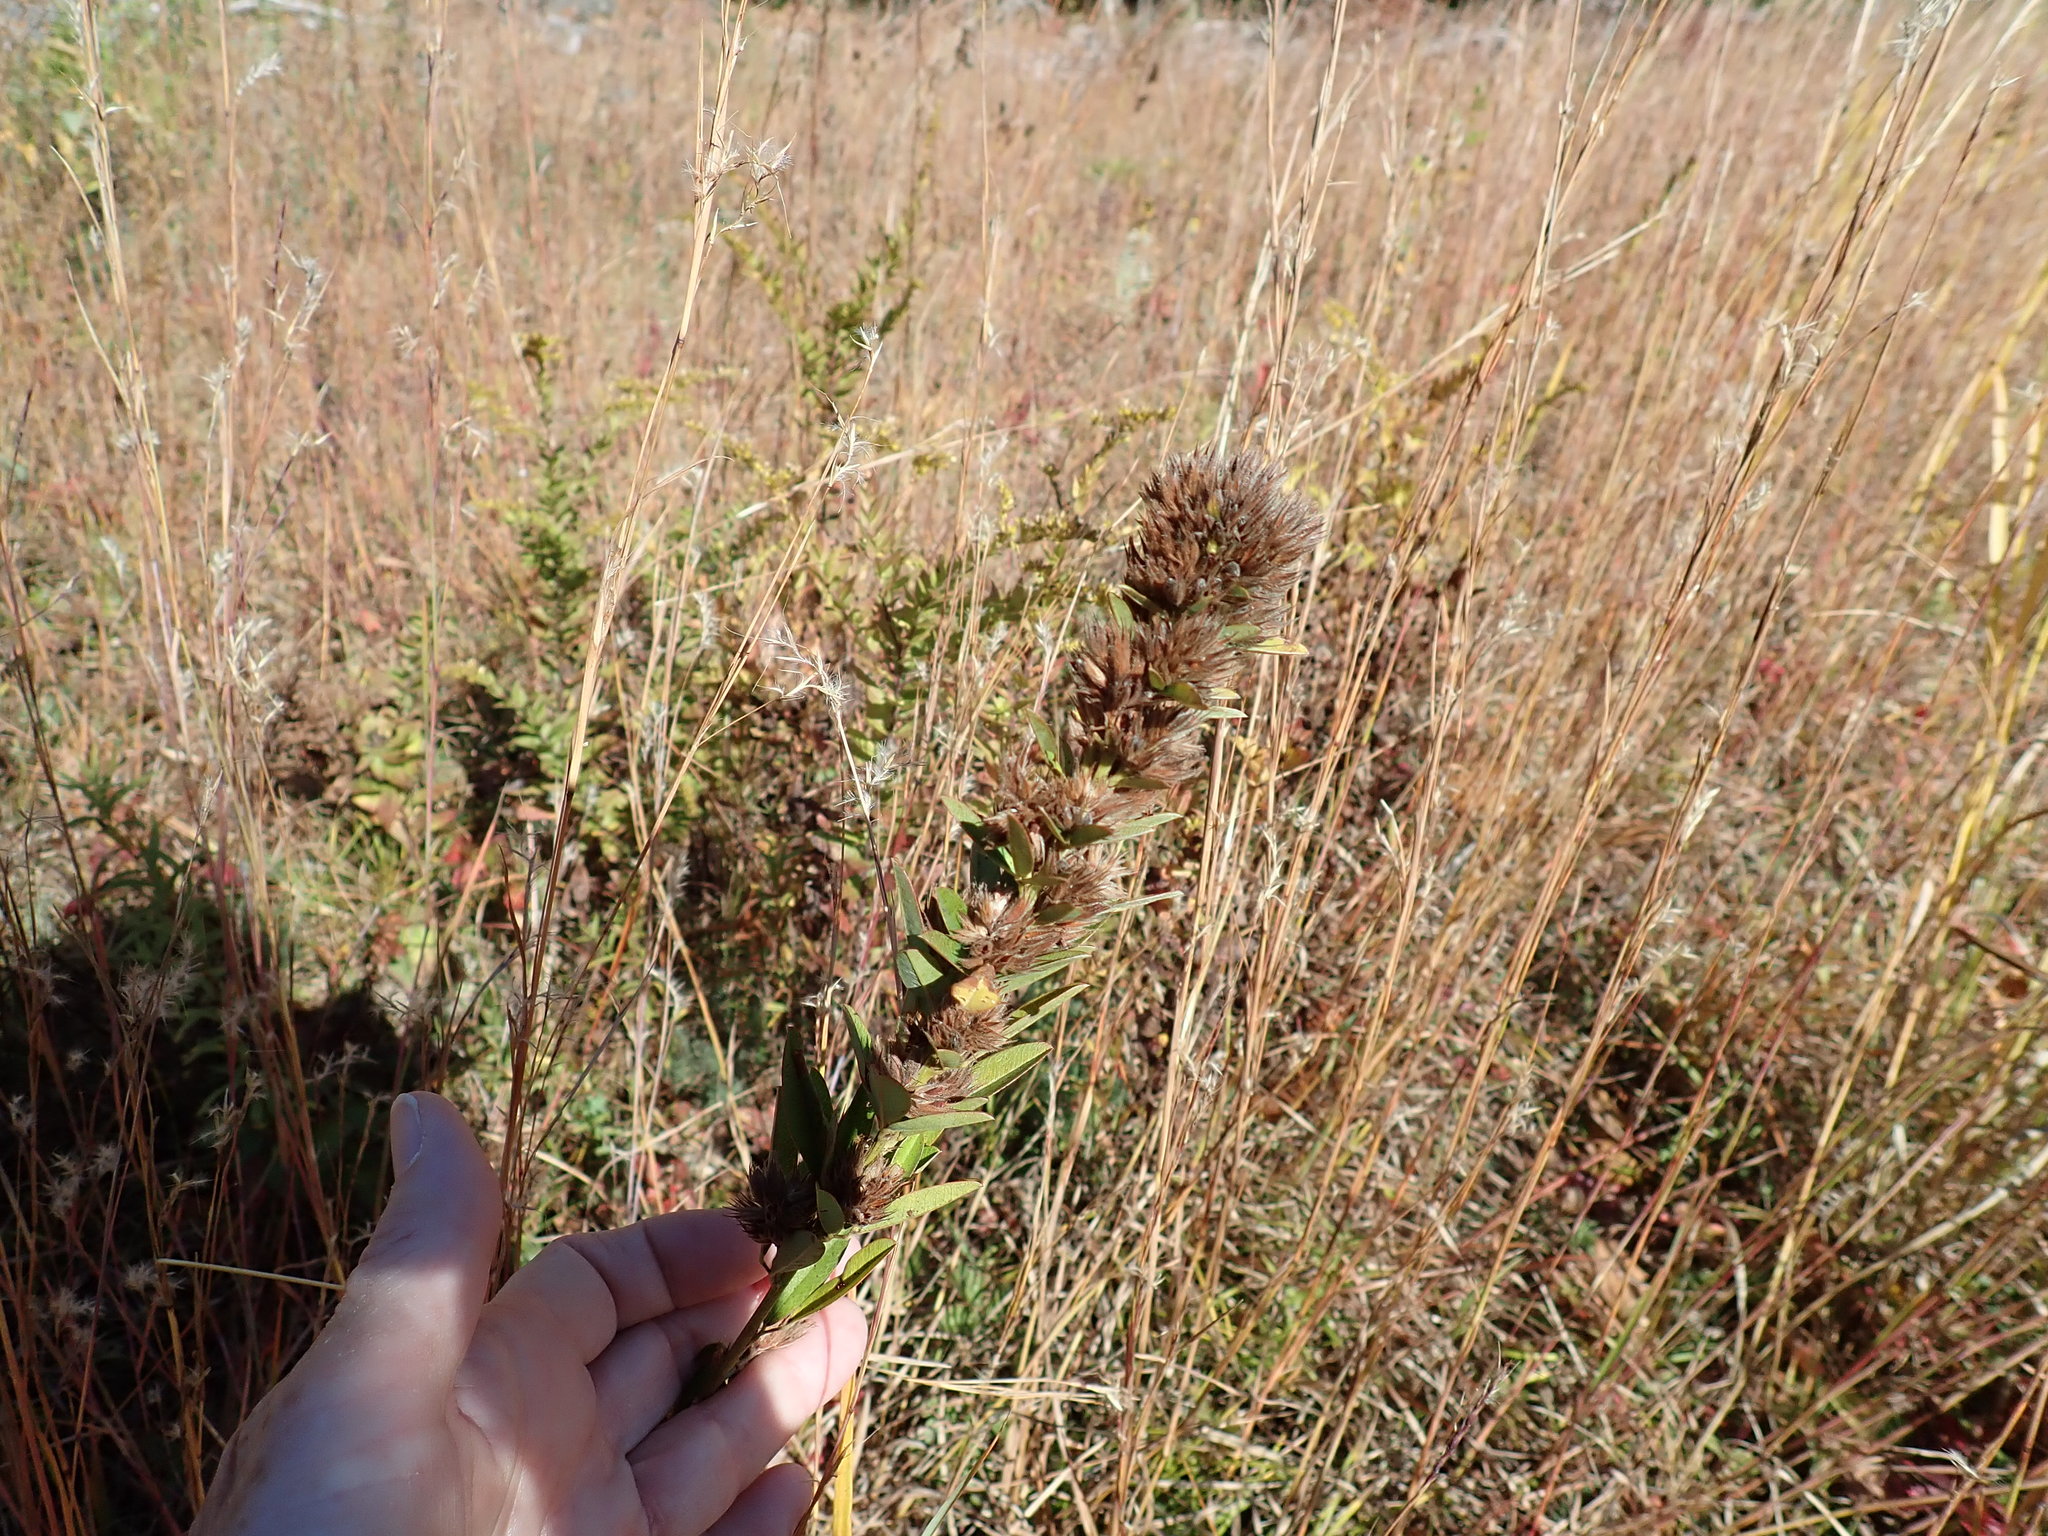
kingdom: Plantae
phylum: Tracheophyta
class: Magnoliopsida
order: Fabales
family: Fabaceae
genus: Lespedeza
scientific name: Lespedeza capitata
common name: Dusty clover
